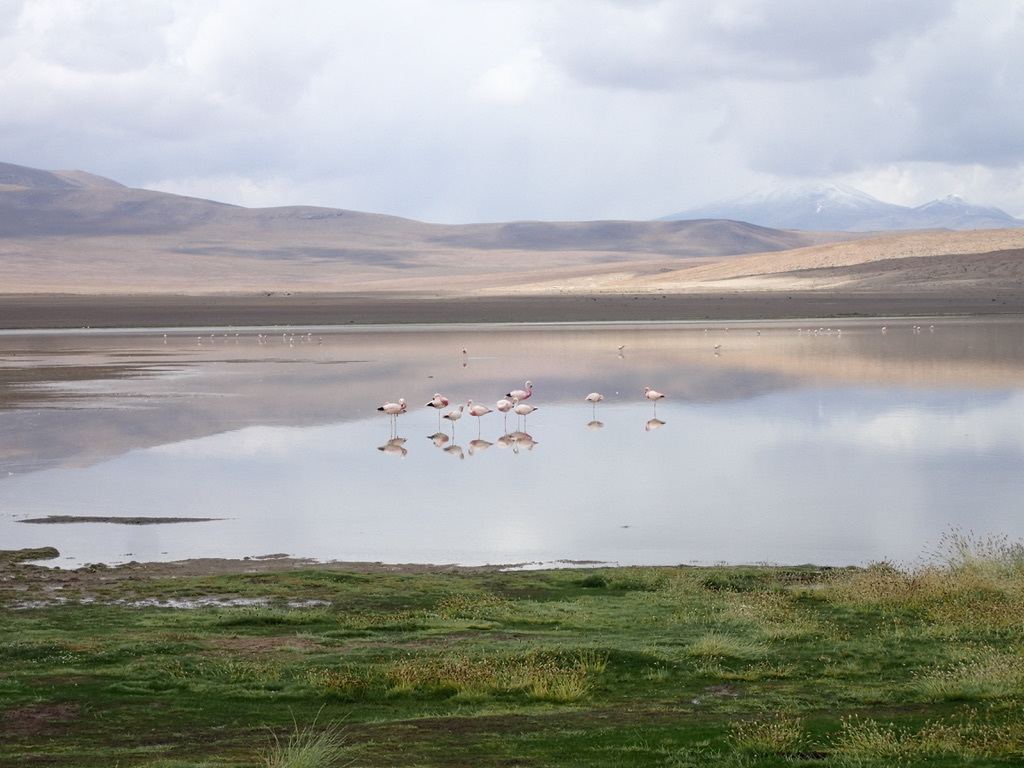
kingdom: Animalia
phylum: Chordata
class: Aves
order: Phoenicopteriformes
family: Phoenicopteridae
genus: Phoenicopterus
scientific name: Phoenicopterus chilensis
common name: Chilean flamingo
